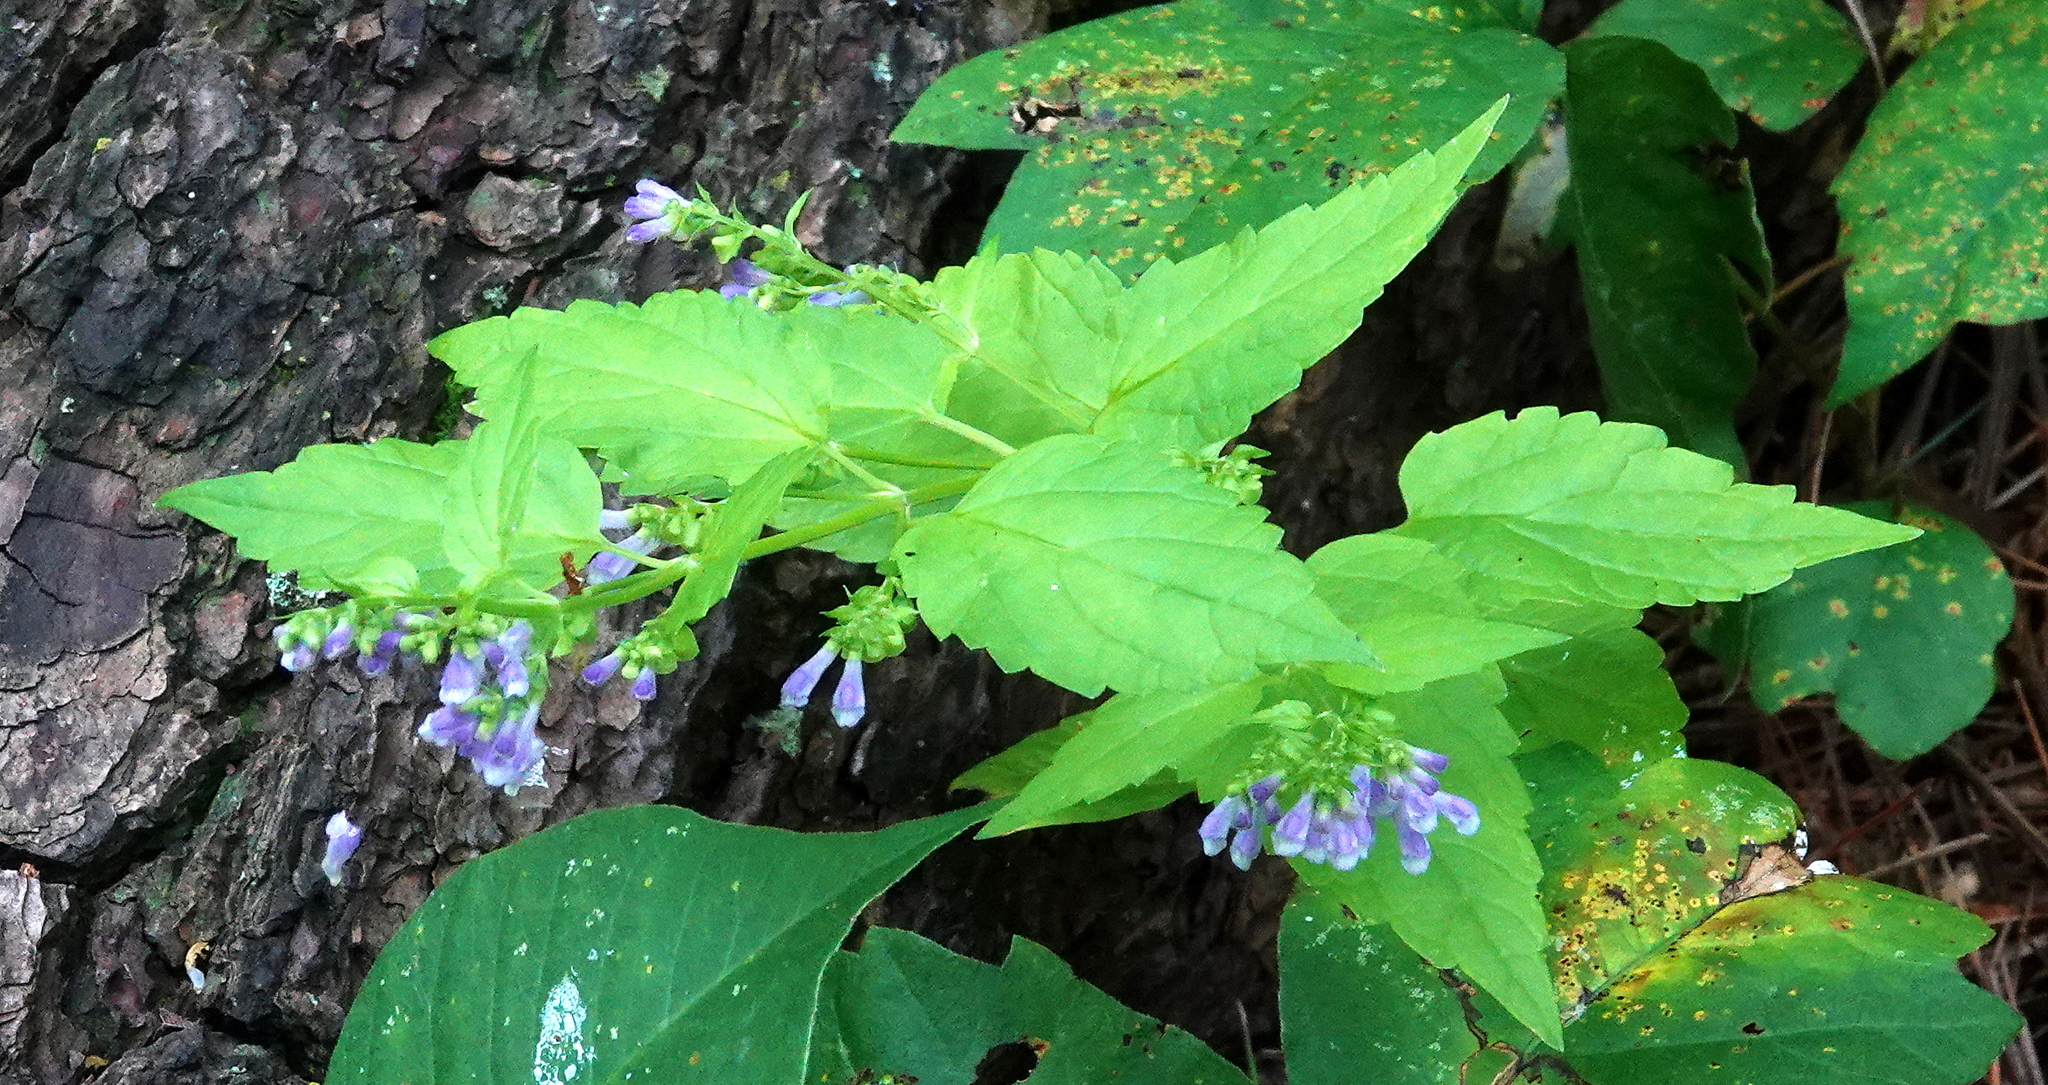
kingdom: Plantae
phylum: Tracheophyta
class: Magnoliopsida
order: Lamiales
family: Lamiaceae
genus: Scutellaria
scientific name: Scutellaria lateriflora
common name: Blue skullcap
